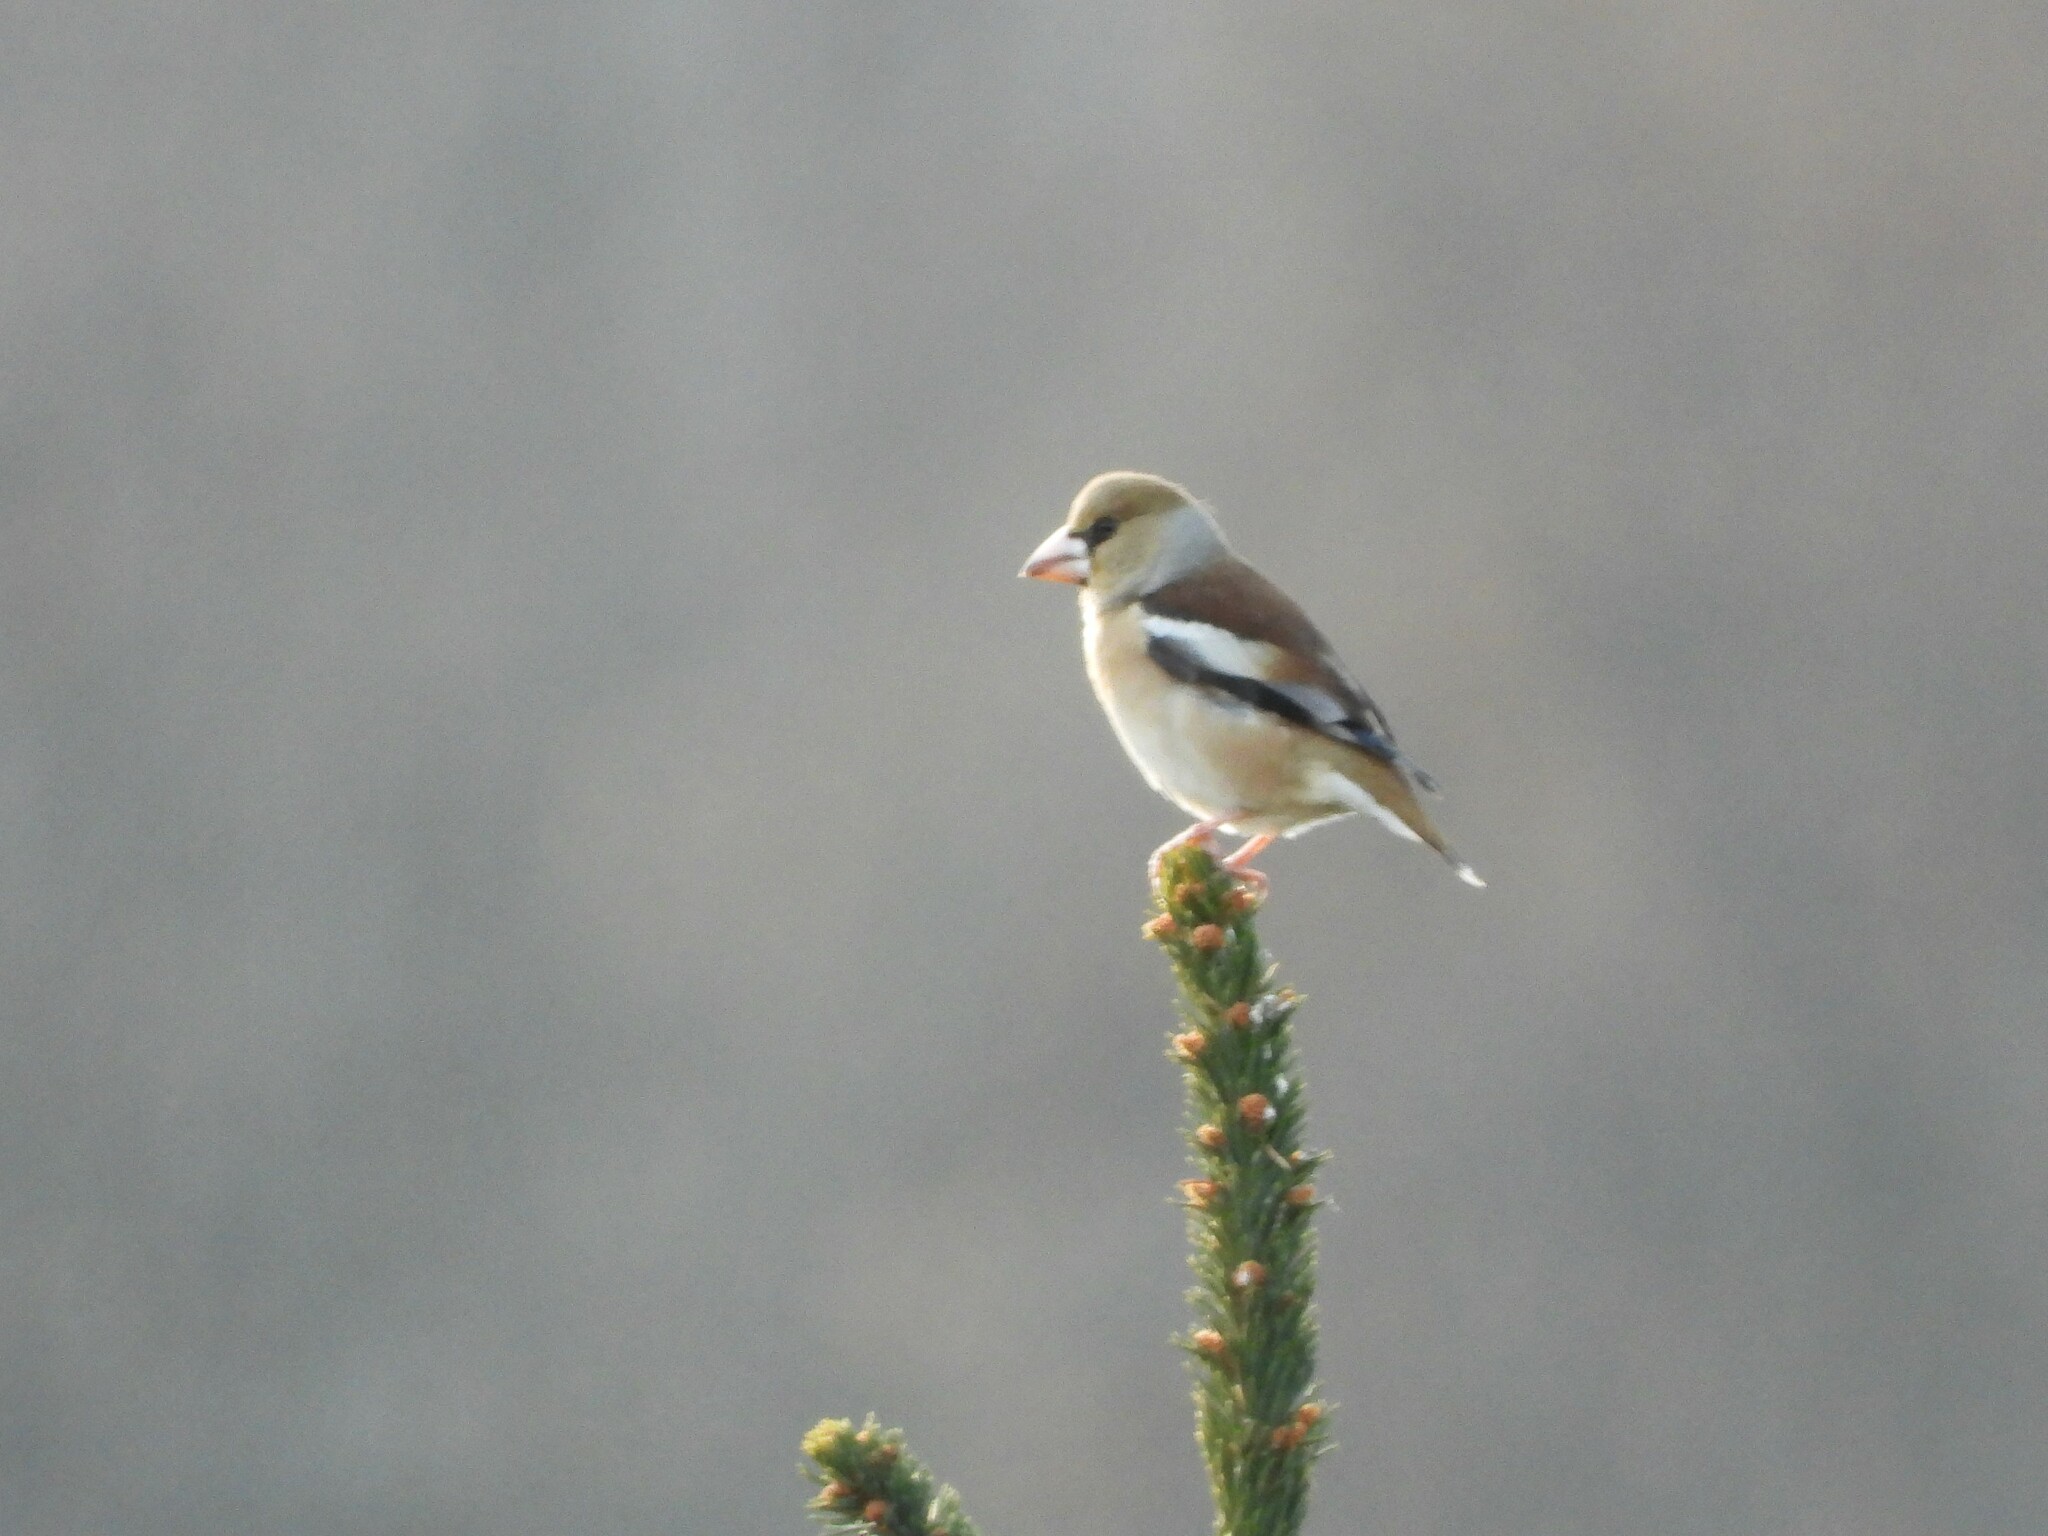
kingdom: Animalia
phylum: Chordata
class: Aves
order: Passeriformes
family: Fringillidae
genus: Coccothraustes
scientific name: Coccothraustes coccothraustes
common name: Hawfinch
